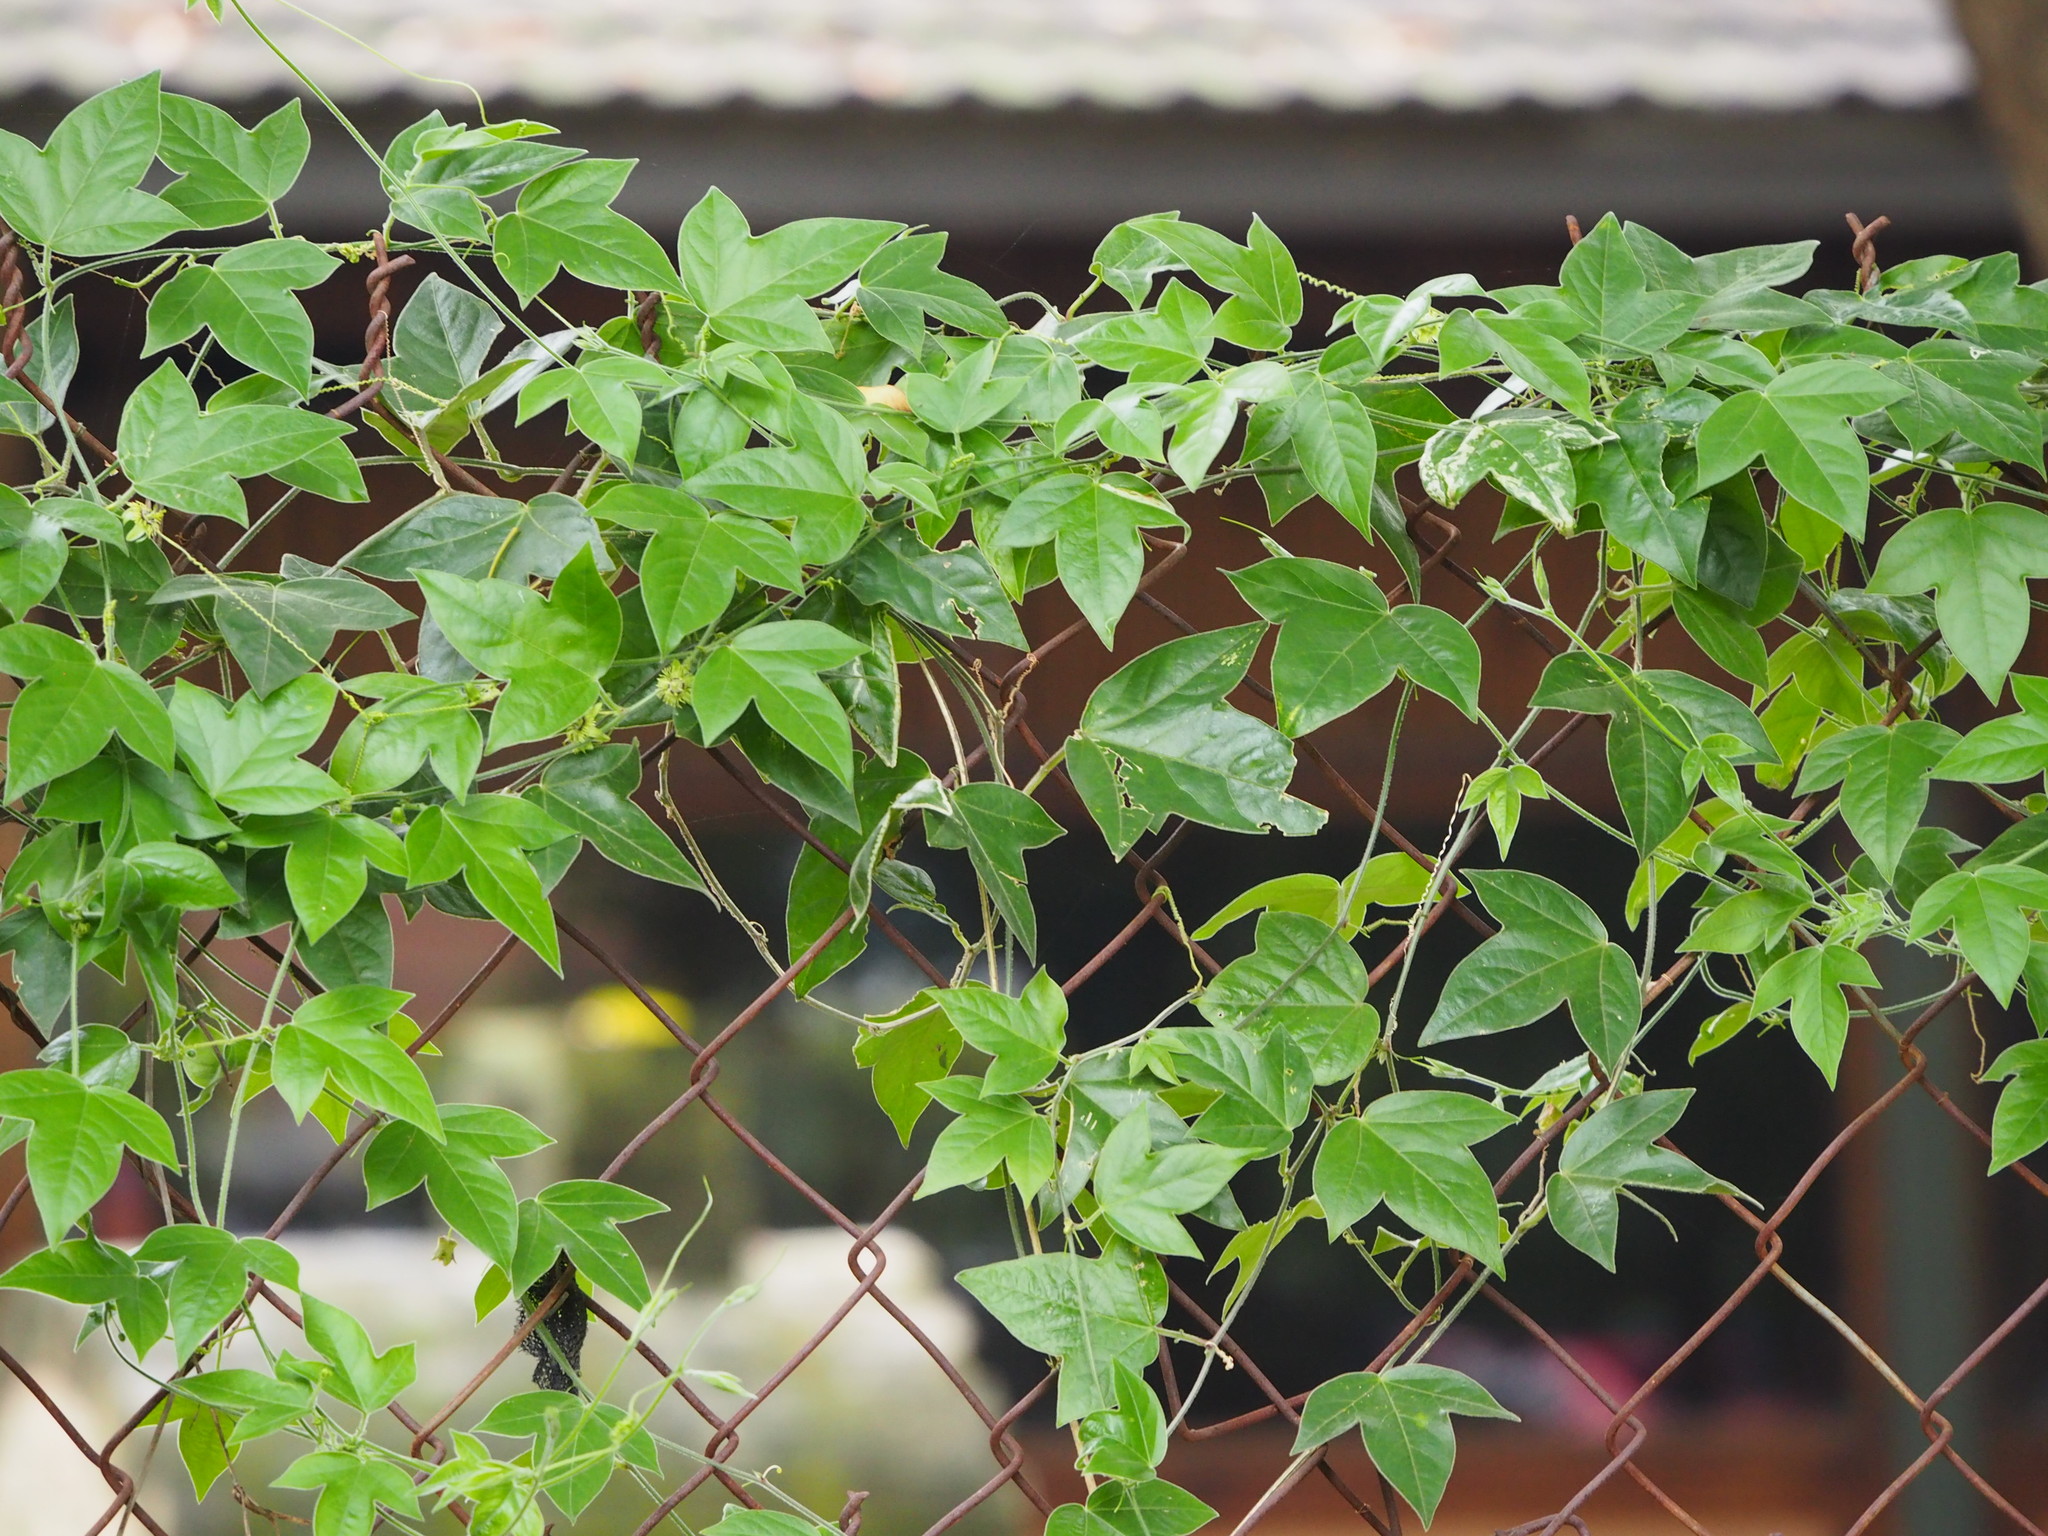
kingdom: Plantae
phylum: Tracheophyta
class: Magnoliopsida
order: Malpighiales
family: Passifloraceae
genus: Passiflora
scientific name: Passiflora suberosa
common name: Wild passionfruit
